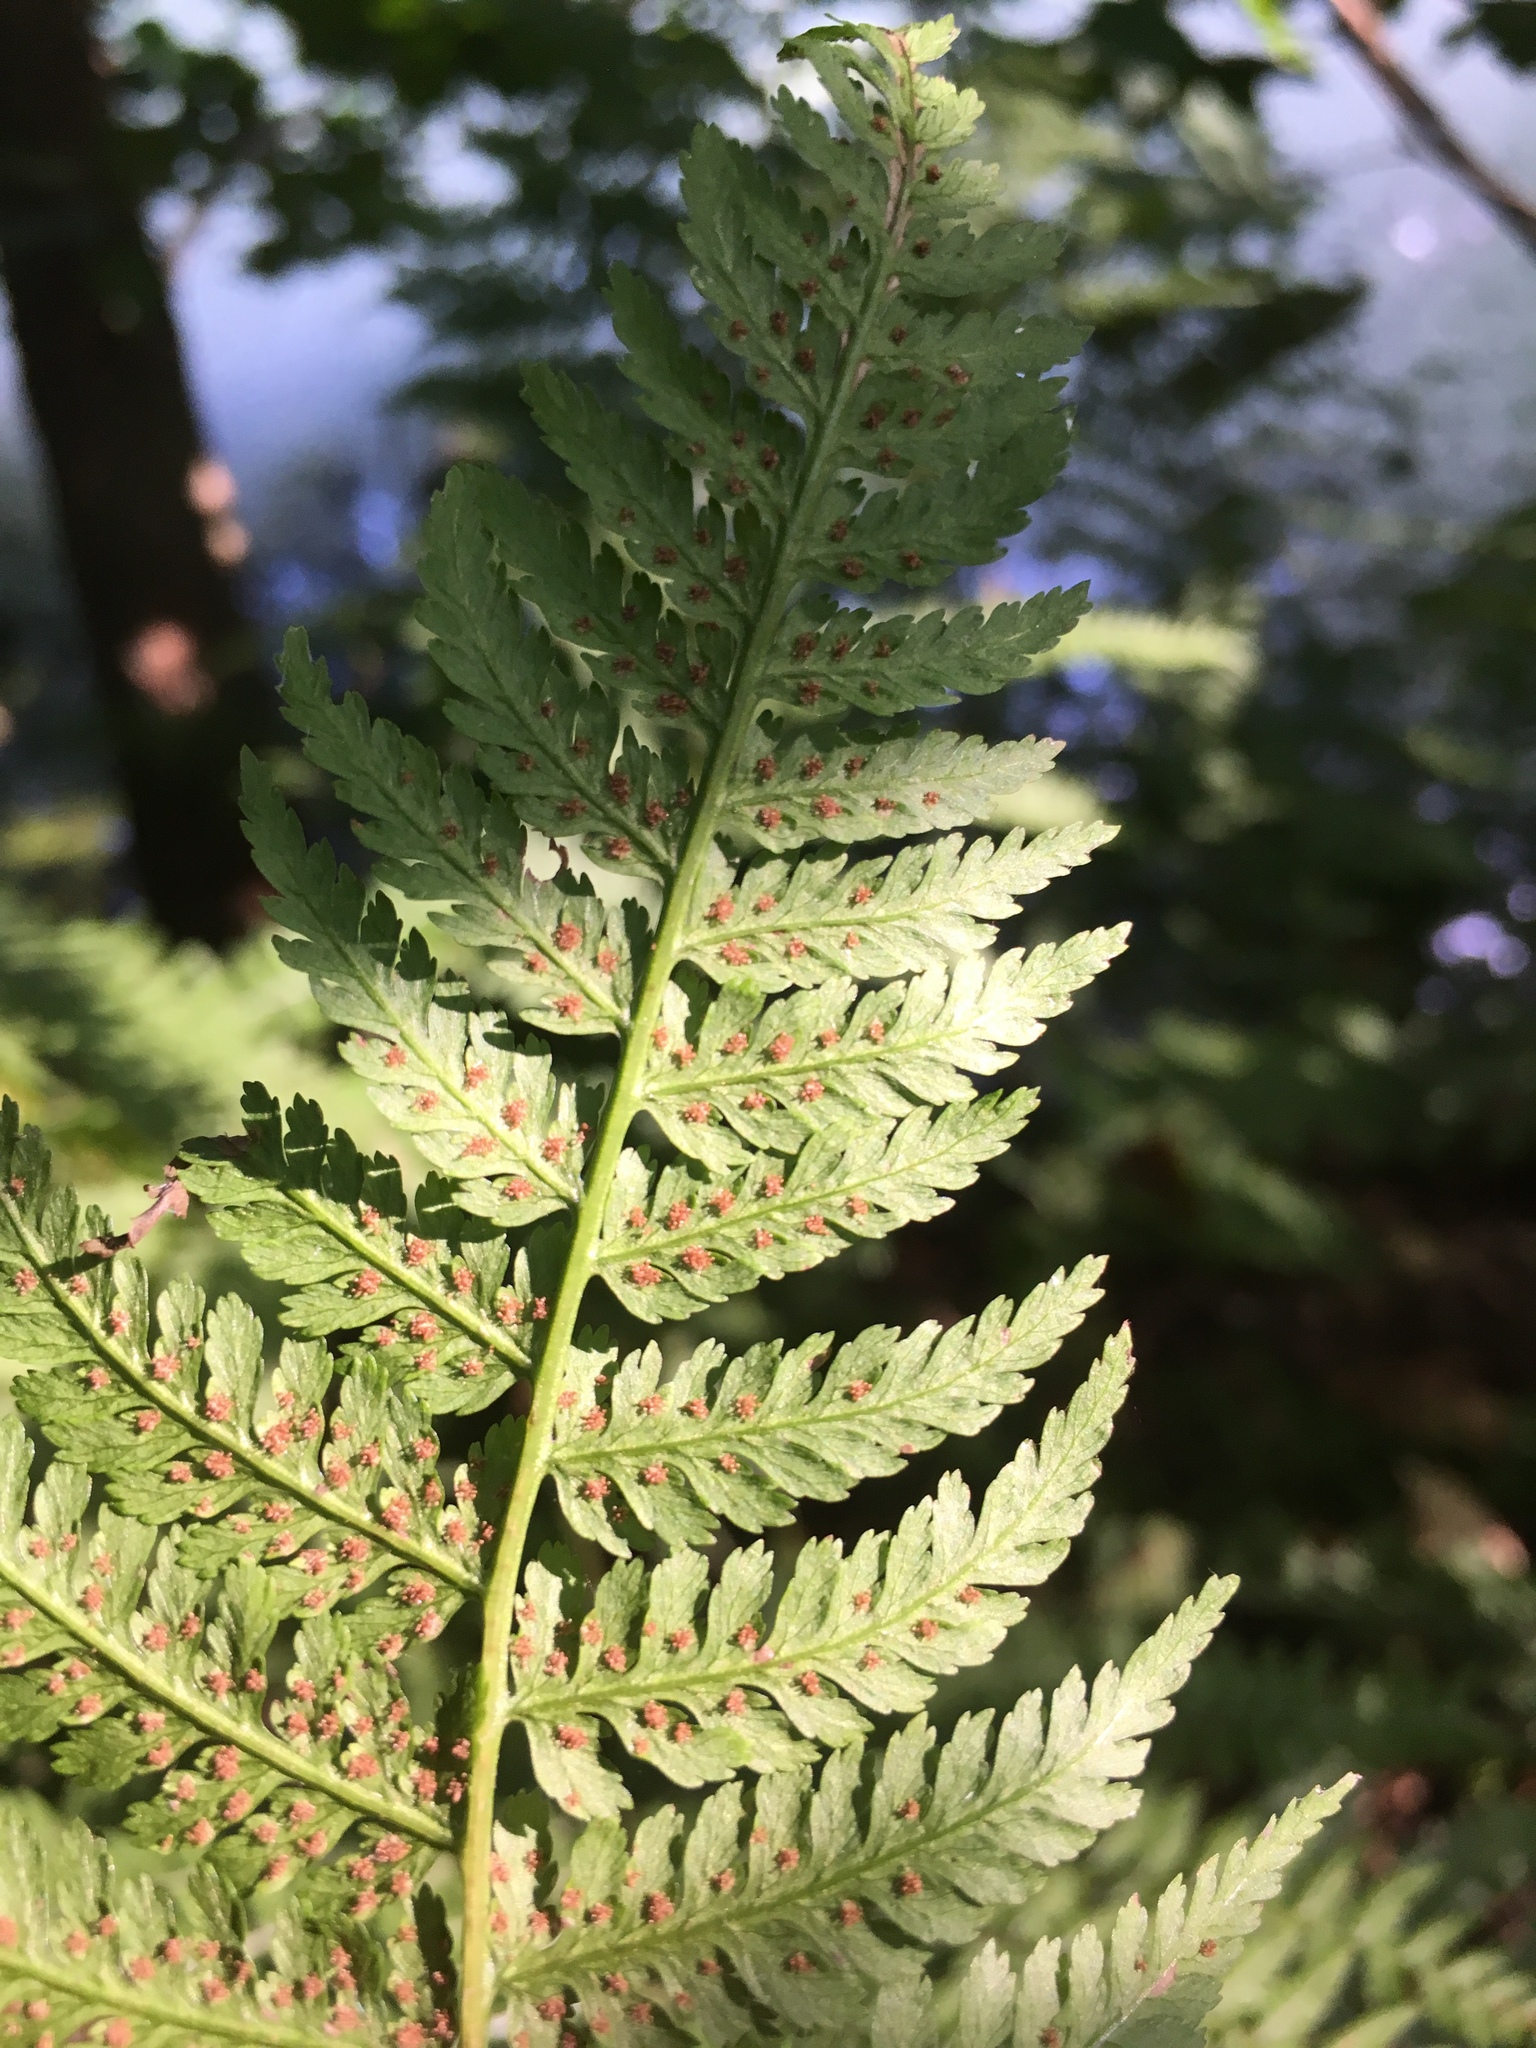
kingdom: Plantae
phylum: Tracheophyta
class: Polypodiopsida
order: Polypodiales
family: Athyriaceae
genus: Athyrium
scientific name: Athyrium filix-femina
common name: Lady fern
